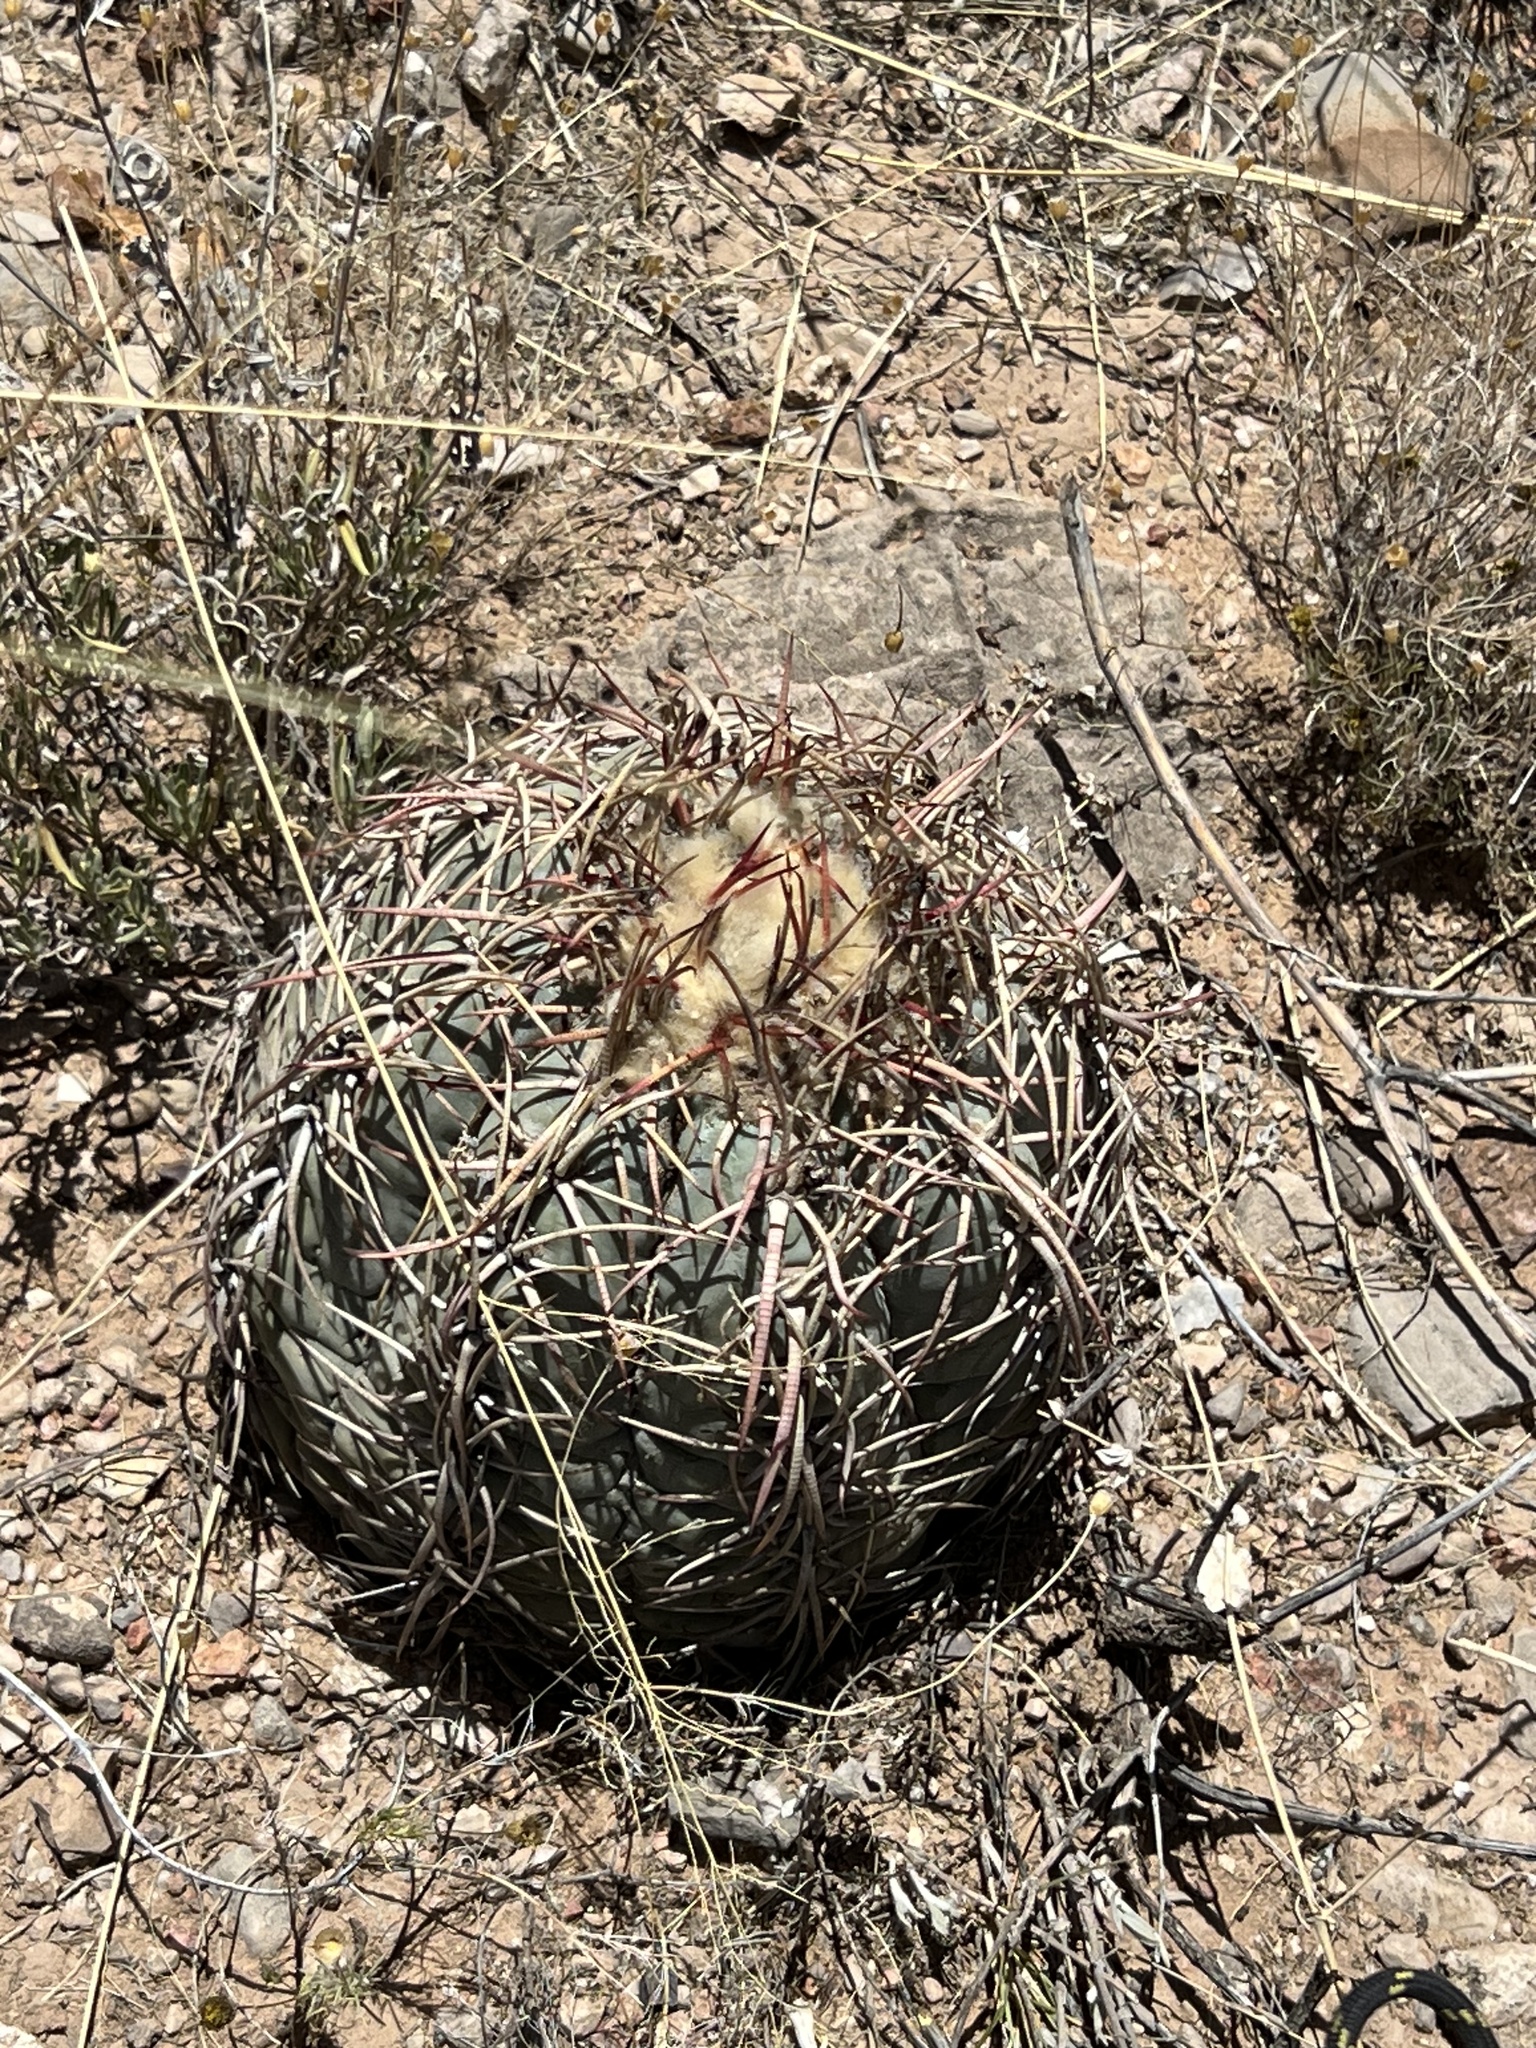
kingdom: Plantae
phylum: Tracheophyta
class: Magnoliopsida
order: Caryophyllales
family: Cactaceae
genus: Echinocactus
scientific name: Echinocactus horizonthalonius
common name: Devilshead
